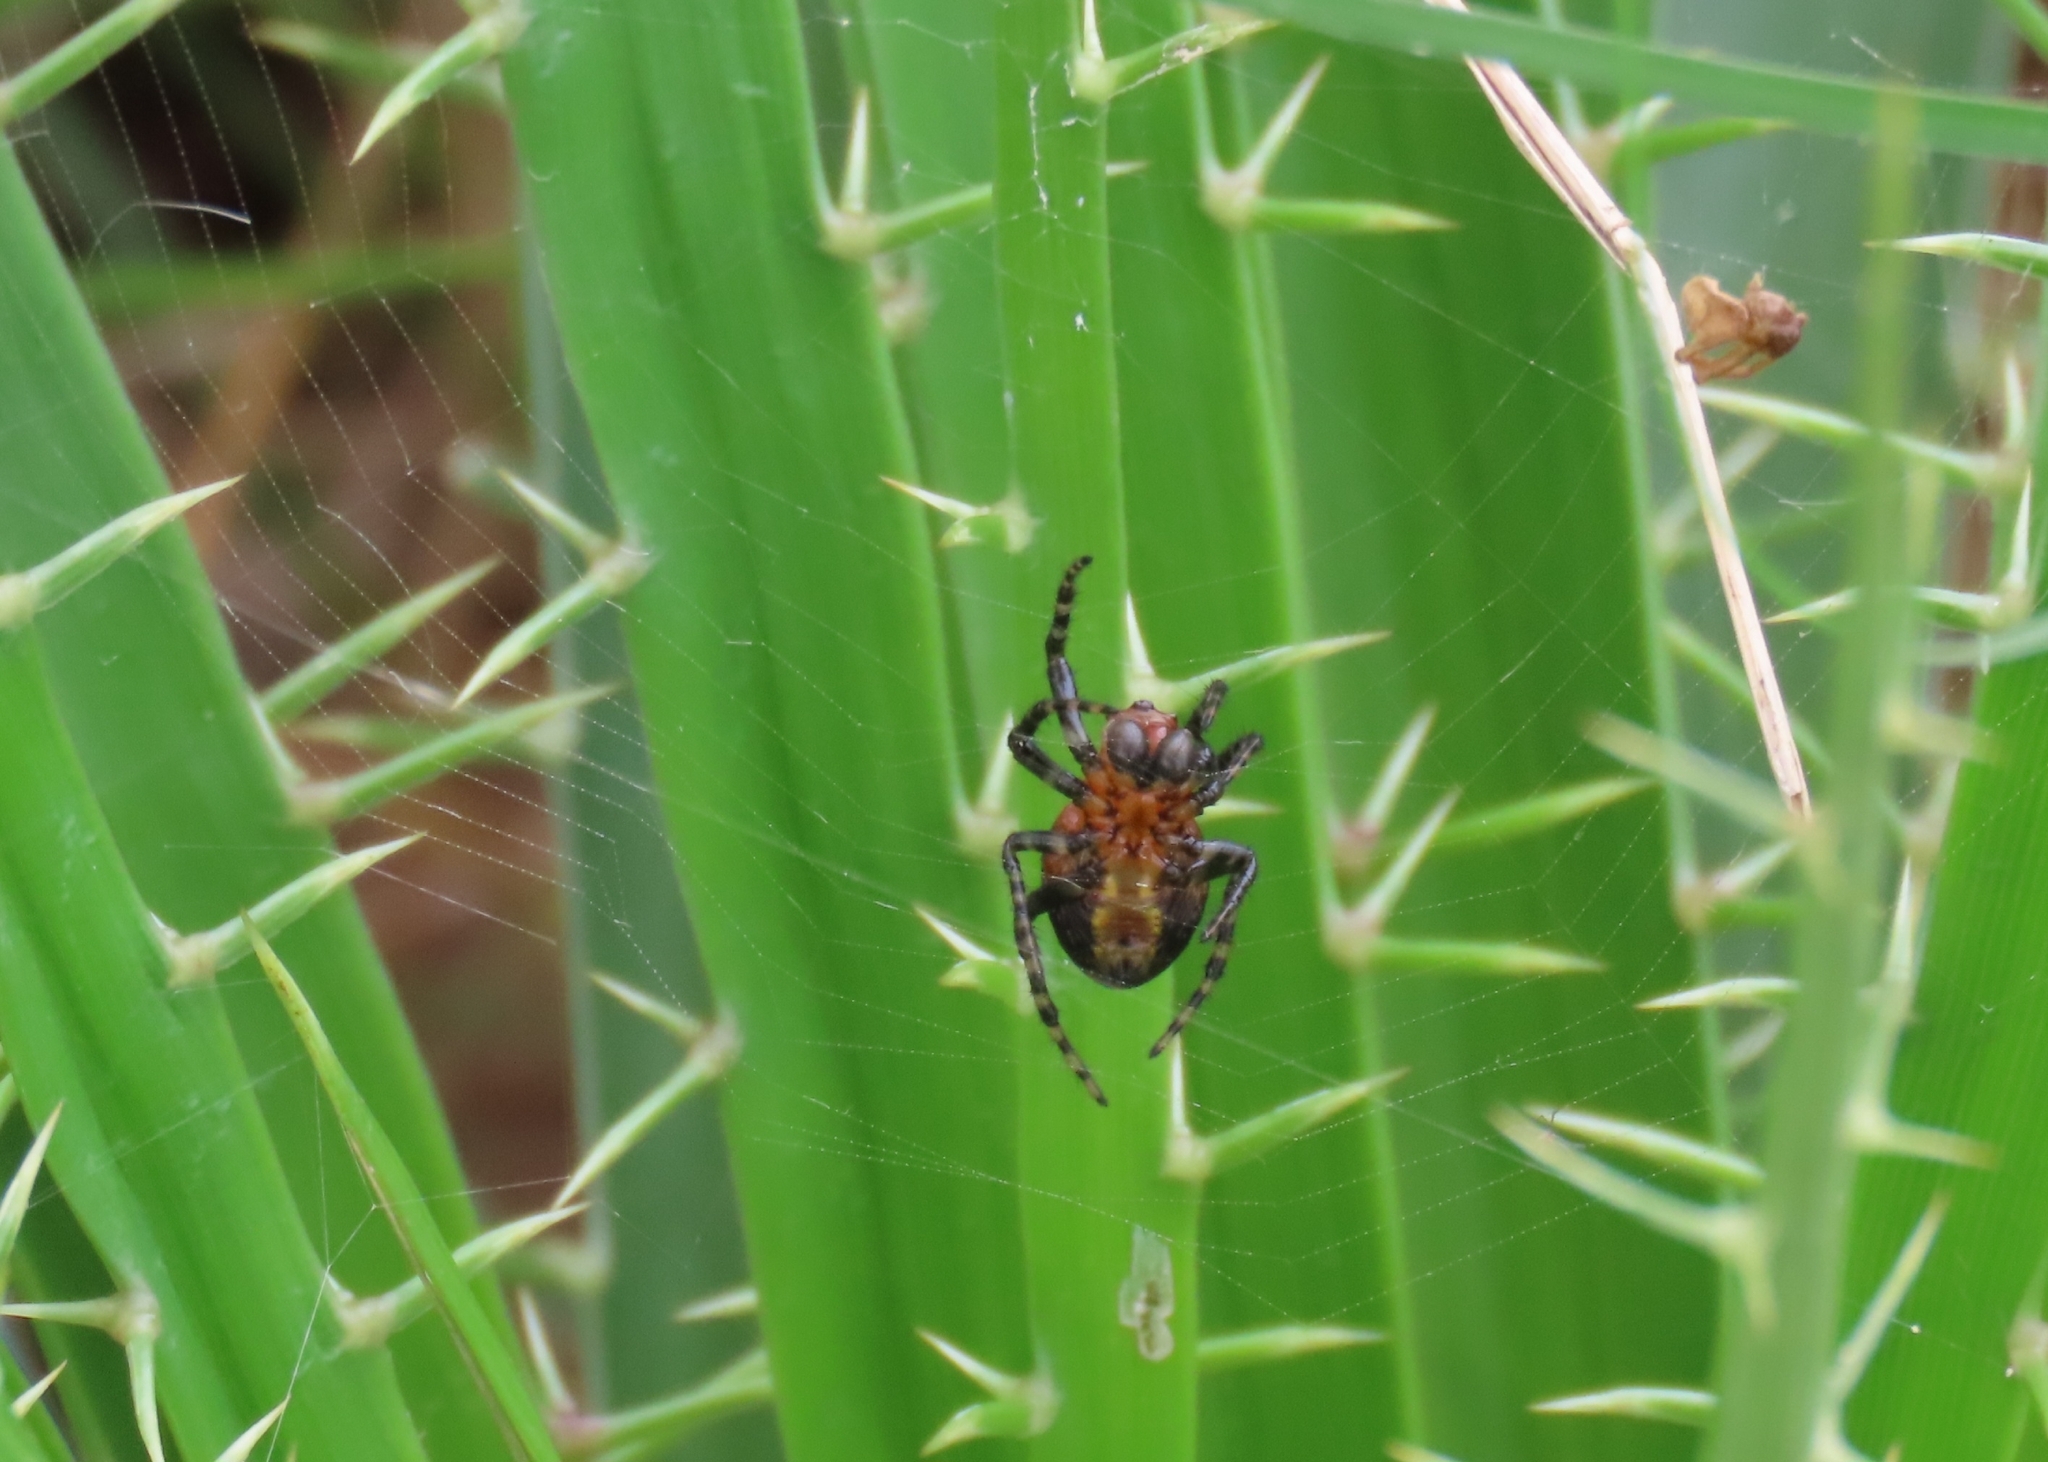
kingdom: Animalia
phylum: Arthropoda
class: Arachnida
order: Araneae
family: Araneidae
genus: Alpaida
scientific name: Alpaida quadrilorata
